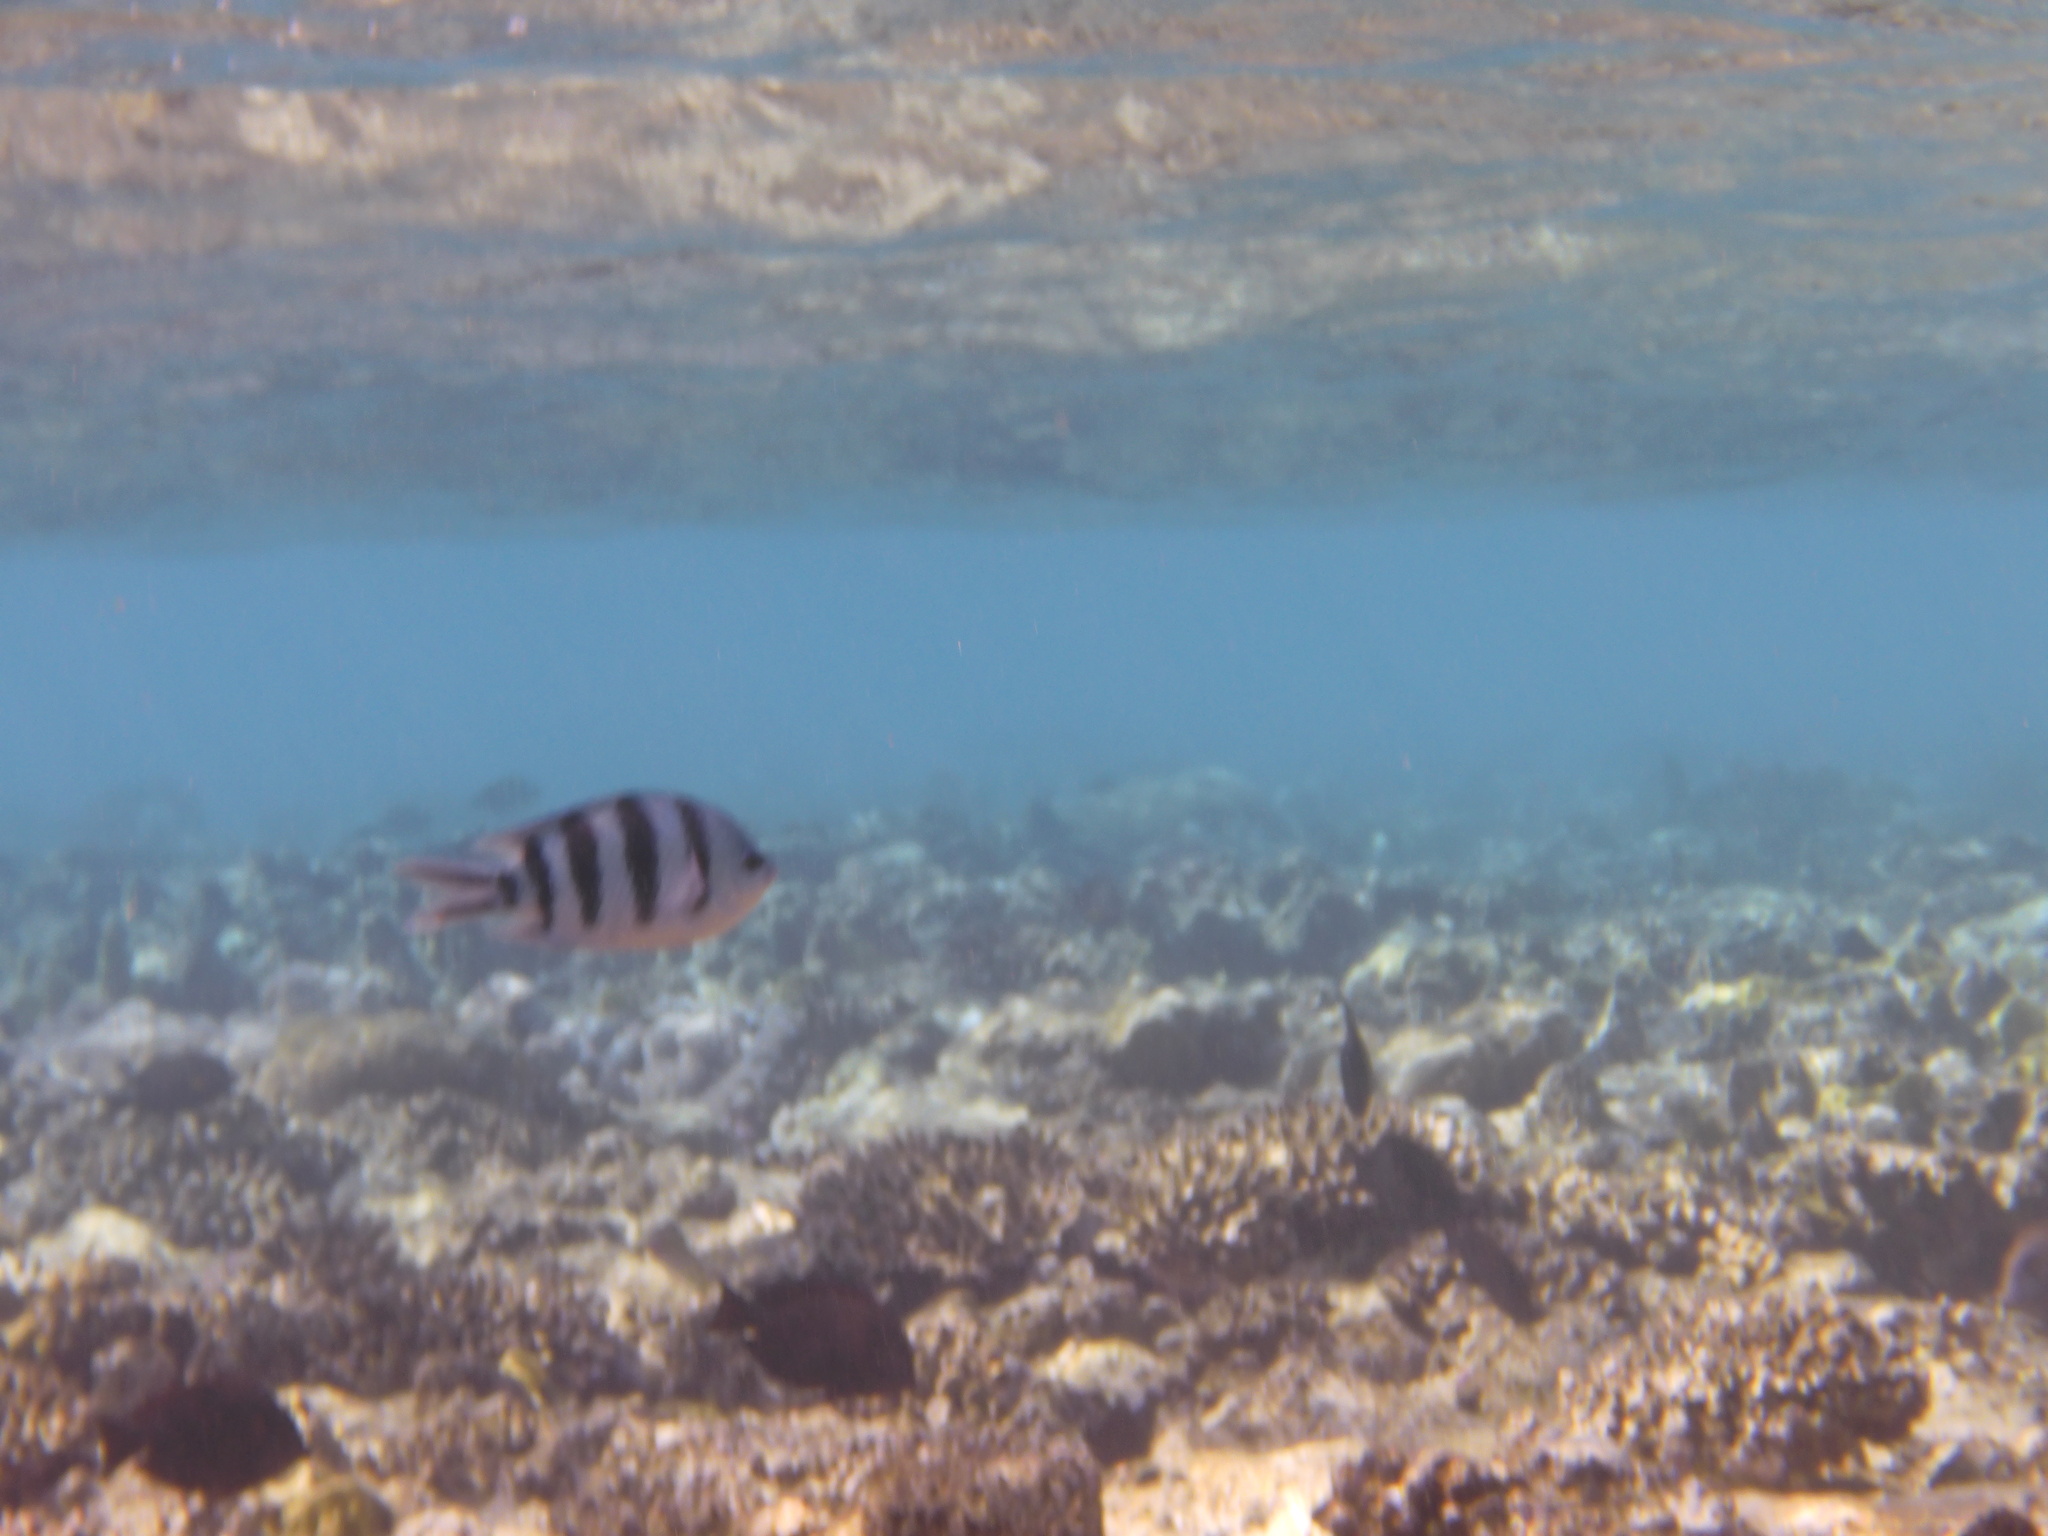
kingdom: Animalia
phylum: Chordata
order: Perciformes
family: Pomacentridae
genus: Abudefduf
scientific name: Abudefduf sexfasciatus
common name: Scissortail sergeant
